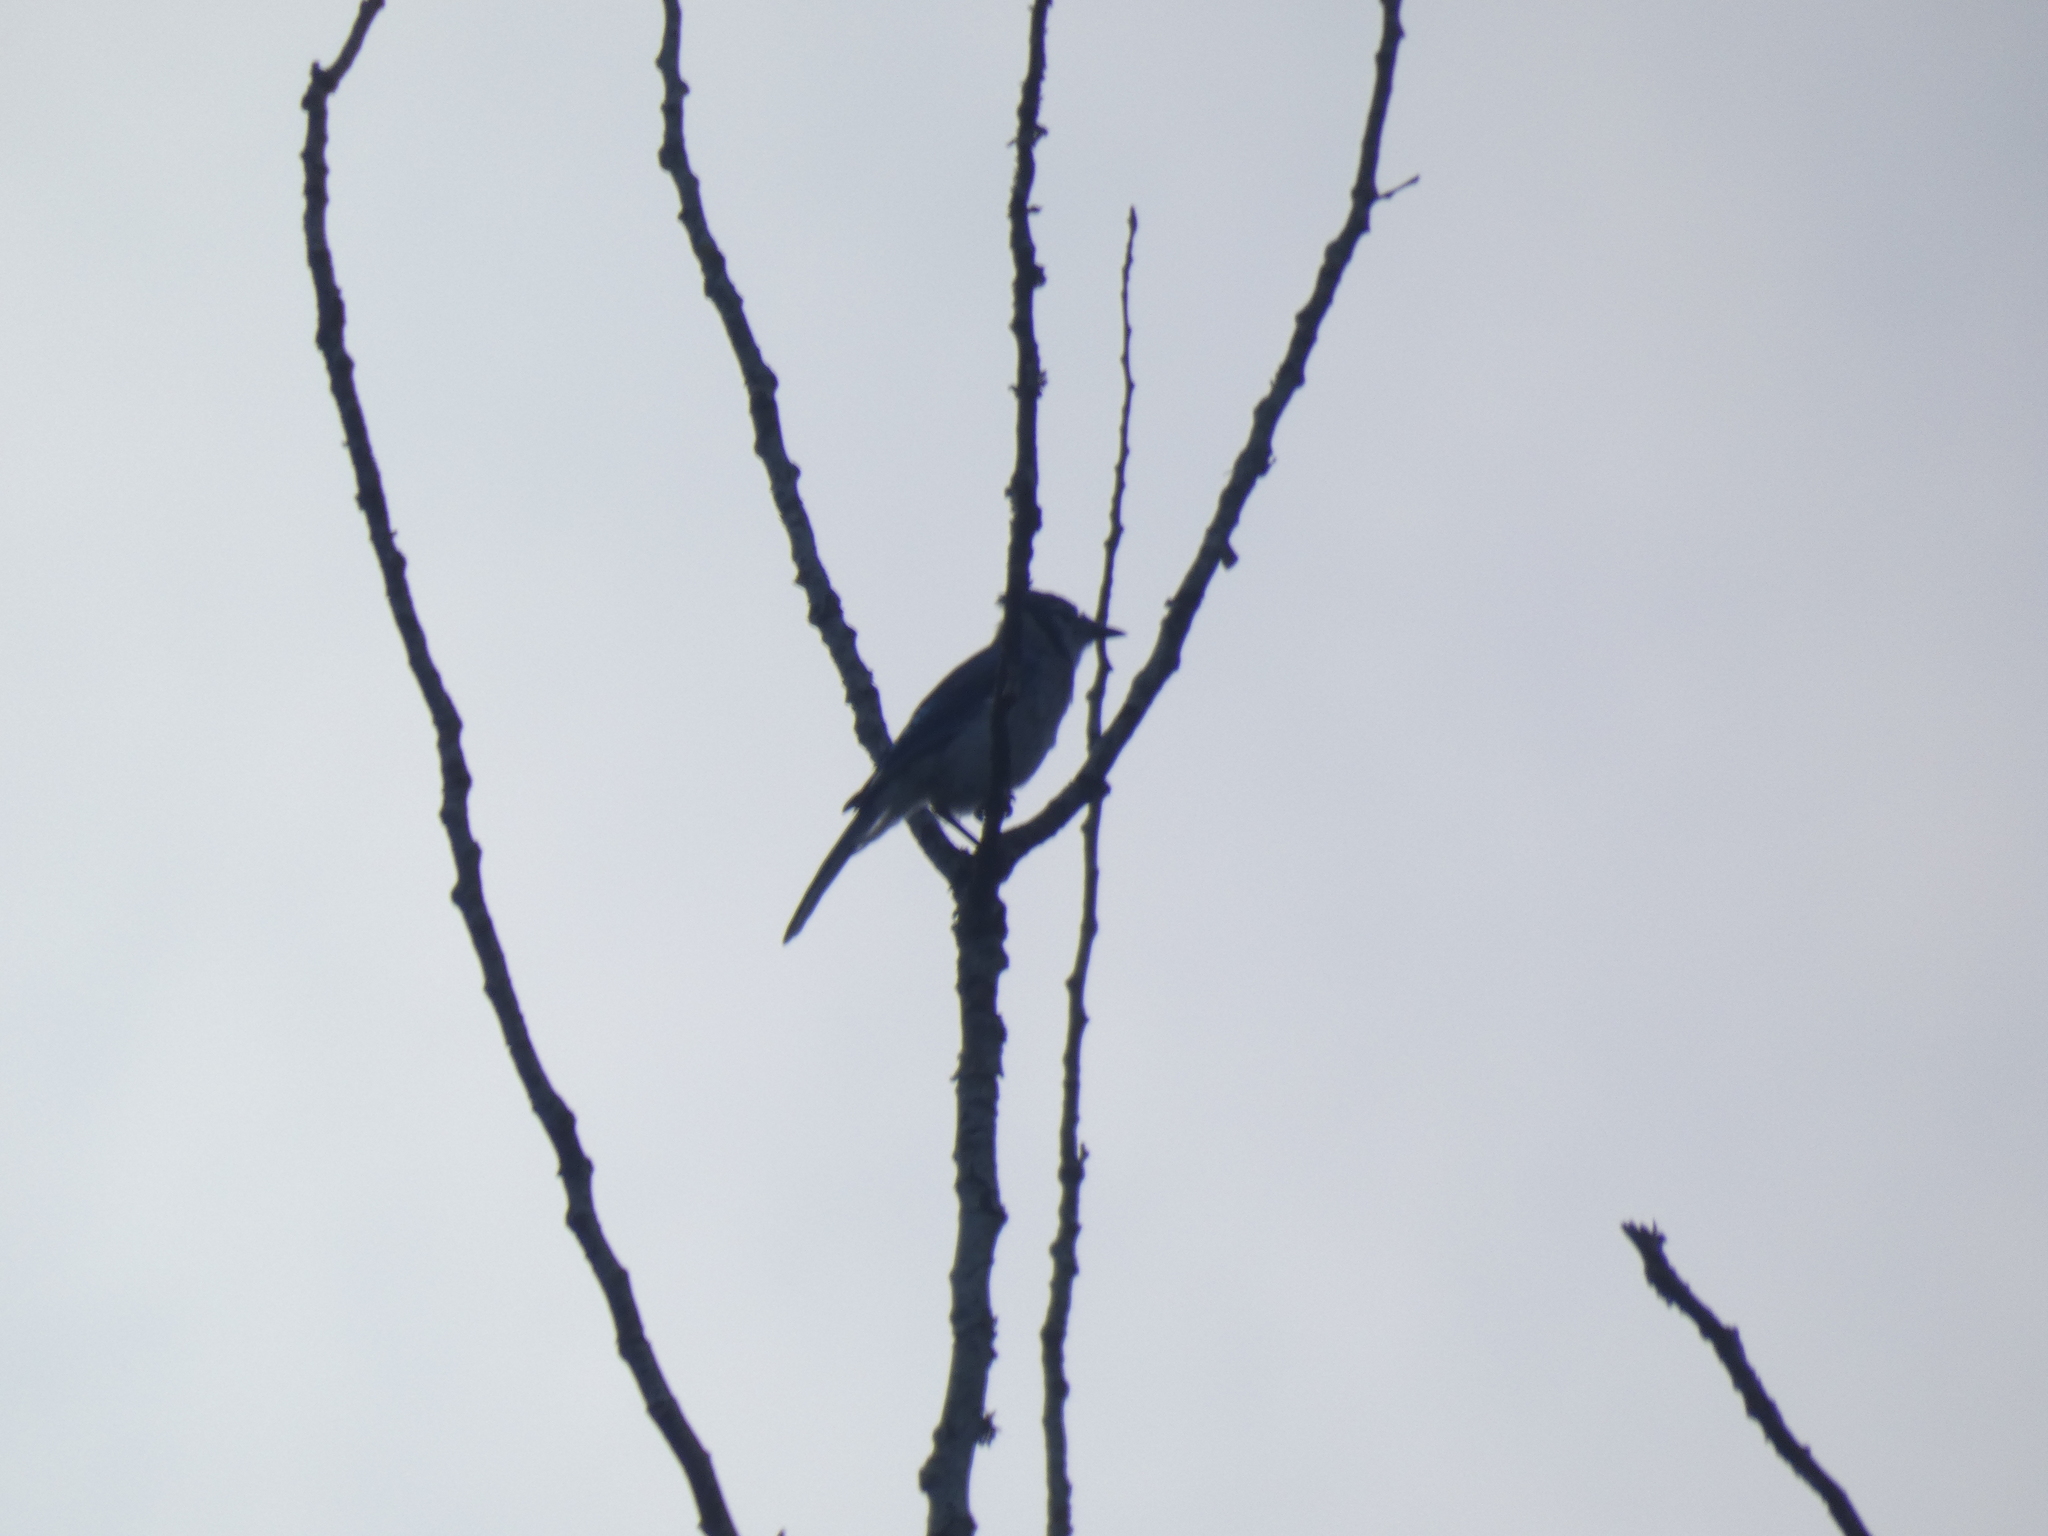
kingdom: Animalia
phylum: Chordata
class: Aves
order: Passeriformes
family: Corvidae
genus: Cyanocitta
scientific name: Cyanocitta cristata
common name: Blue jay
